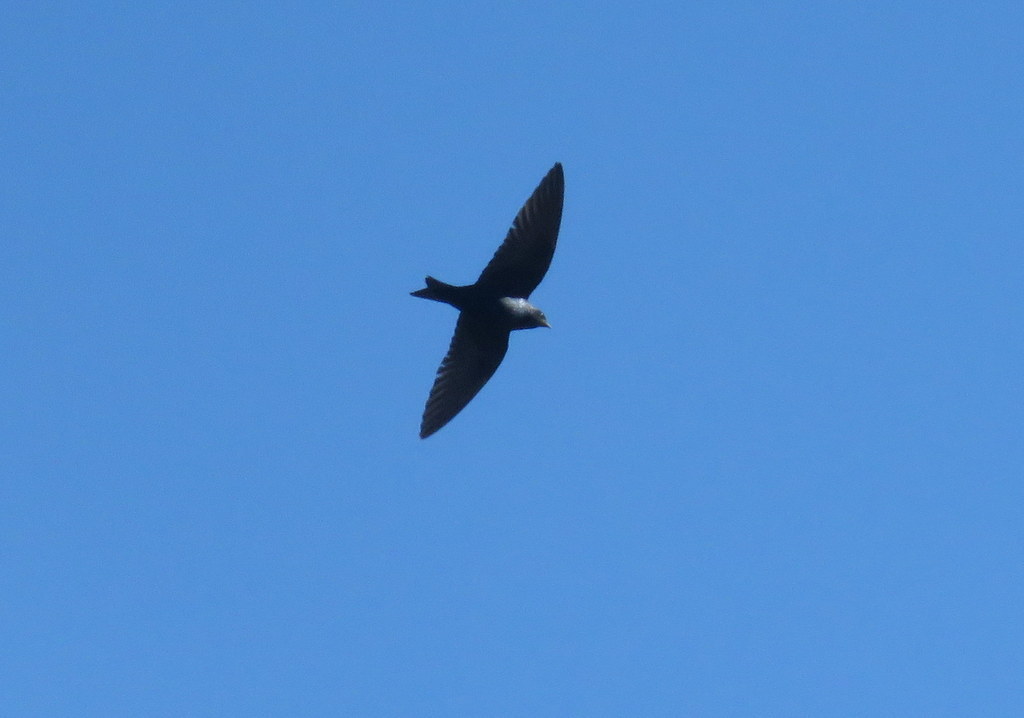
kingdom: Animalia
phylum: Chordata
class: Aves
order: Passeriformes
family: Hirundinidae
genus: Progne
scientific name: Progne elegans
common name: Southern martin
